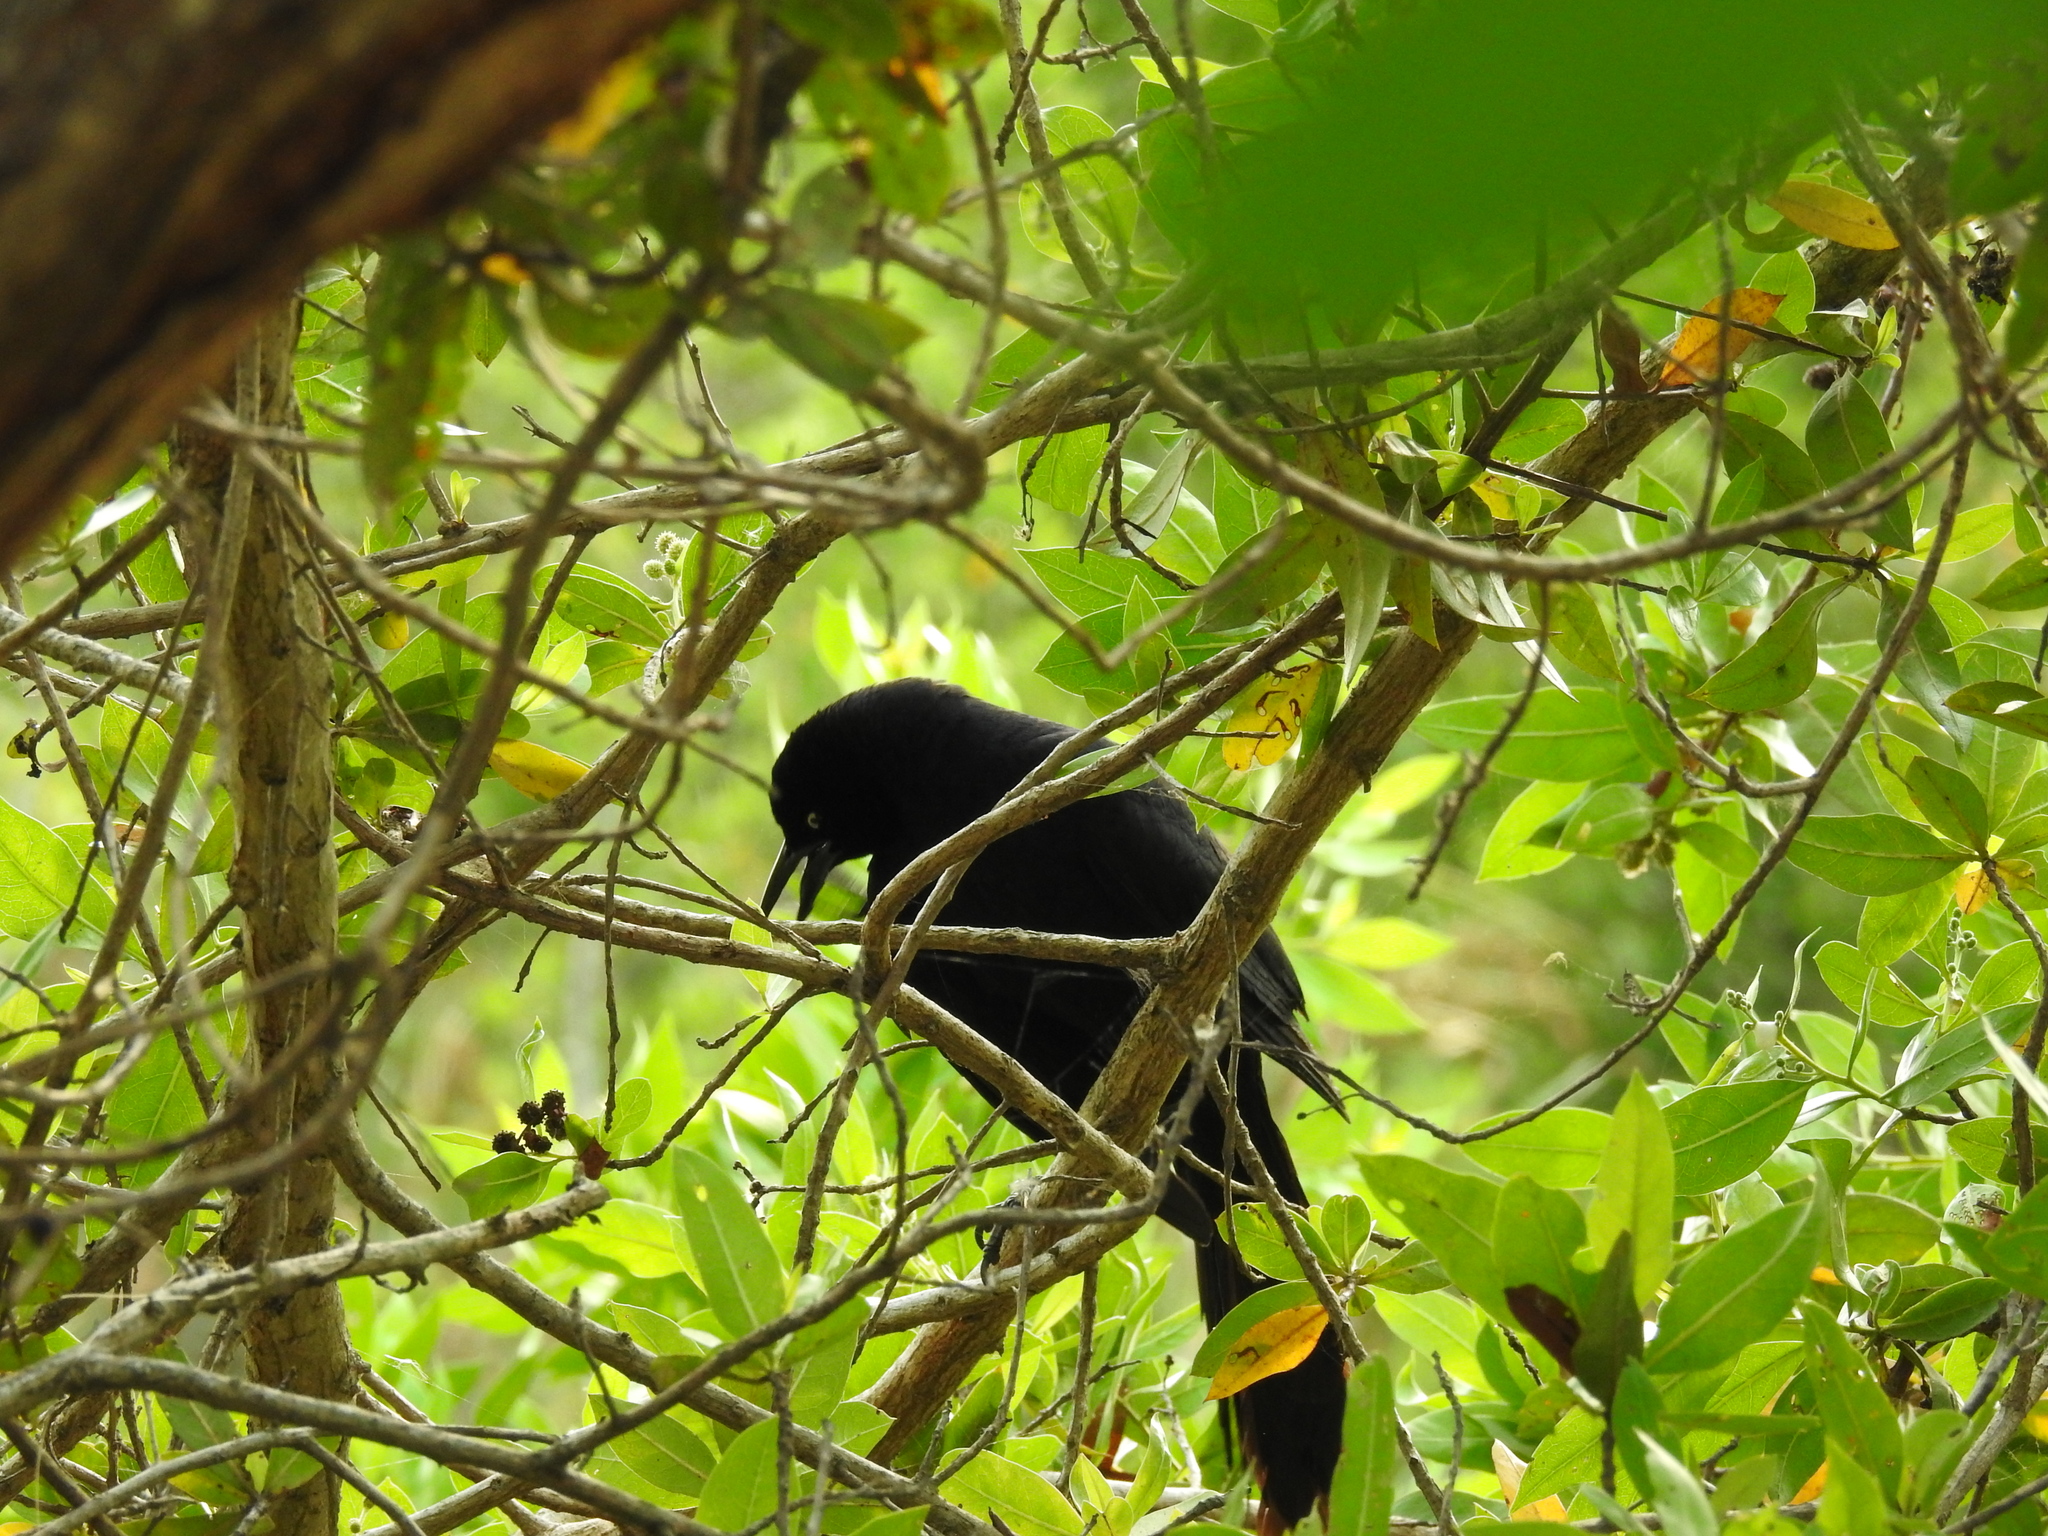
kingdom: Animalia
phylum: Chordata
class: Aves
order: Passeriformes
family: Icteridae
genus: Quiscalus
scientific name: Quiscalus mexicanus
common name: Great-tailed grackle
